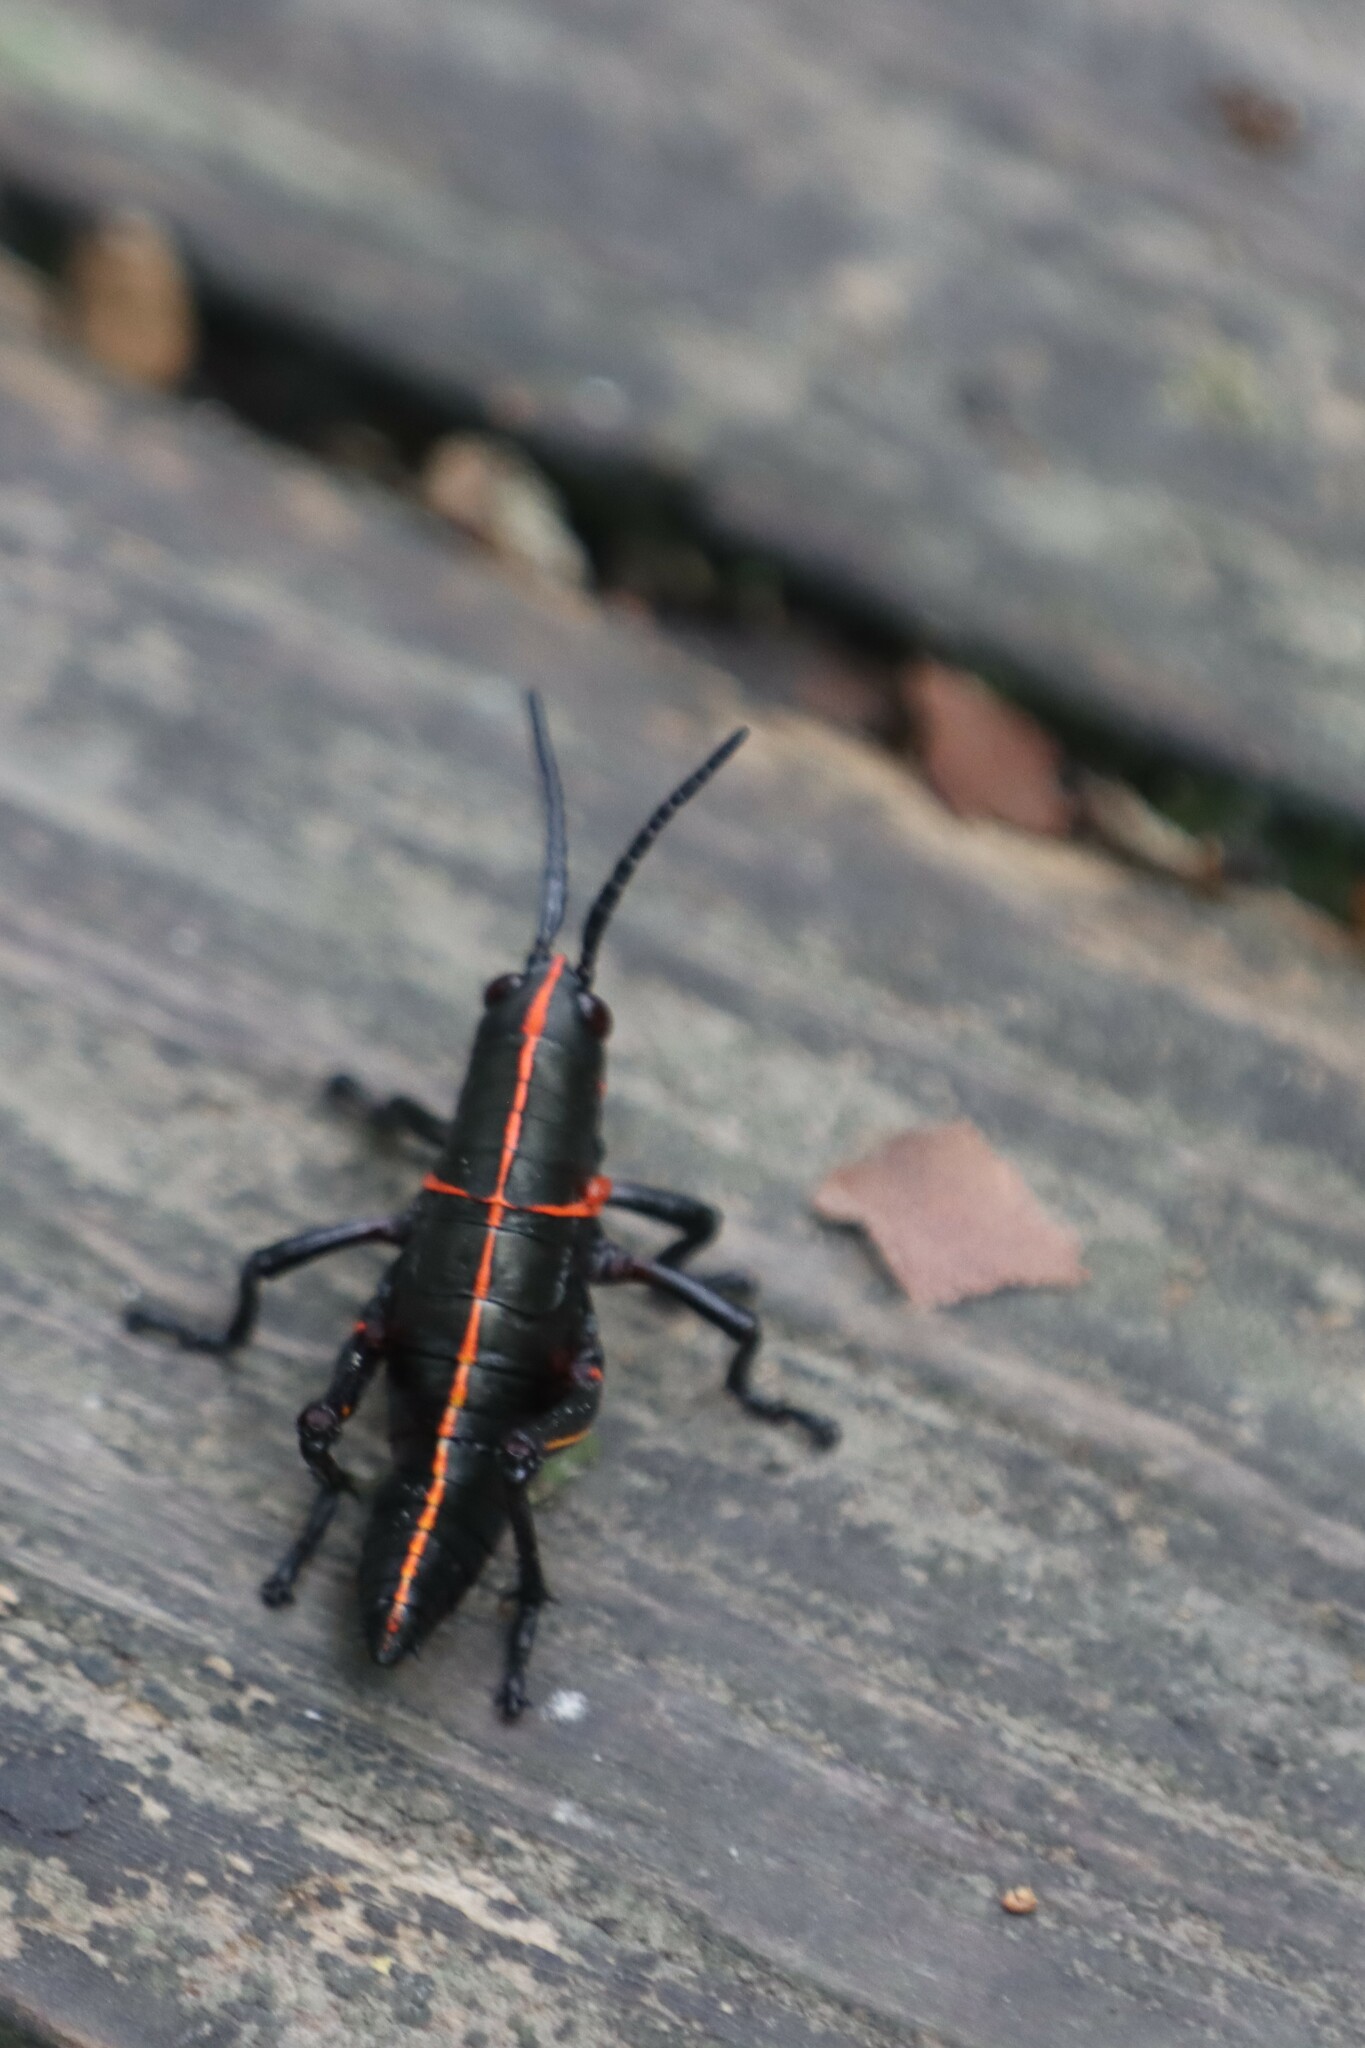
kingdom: Animalia
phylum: Arthropoda
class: Insecta
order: Orthoptera
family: Romaleidae
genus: Romalea
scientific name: Romalea microptera
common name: Eastern lubber grasshopper
